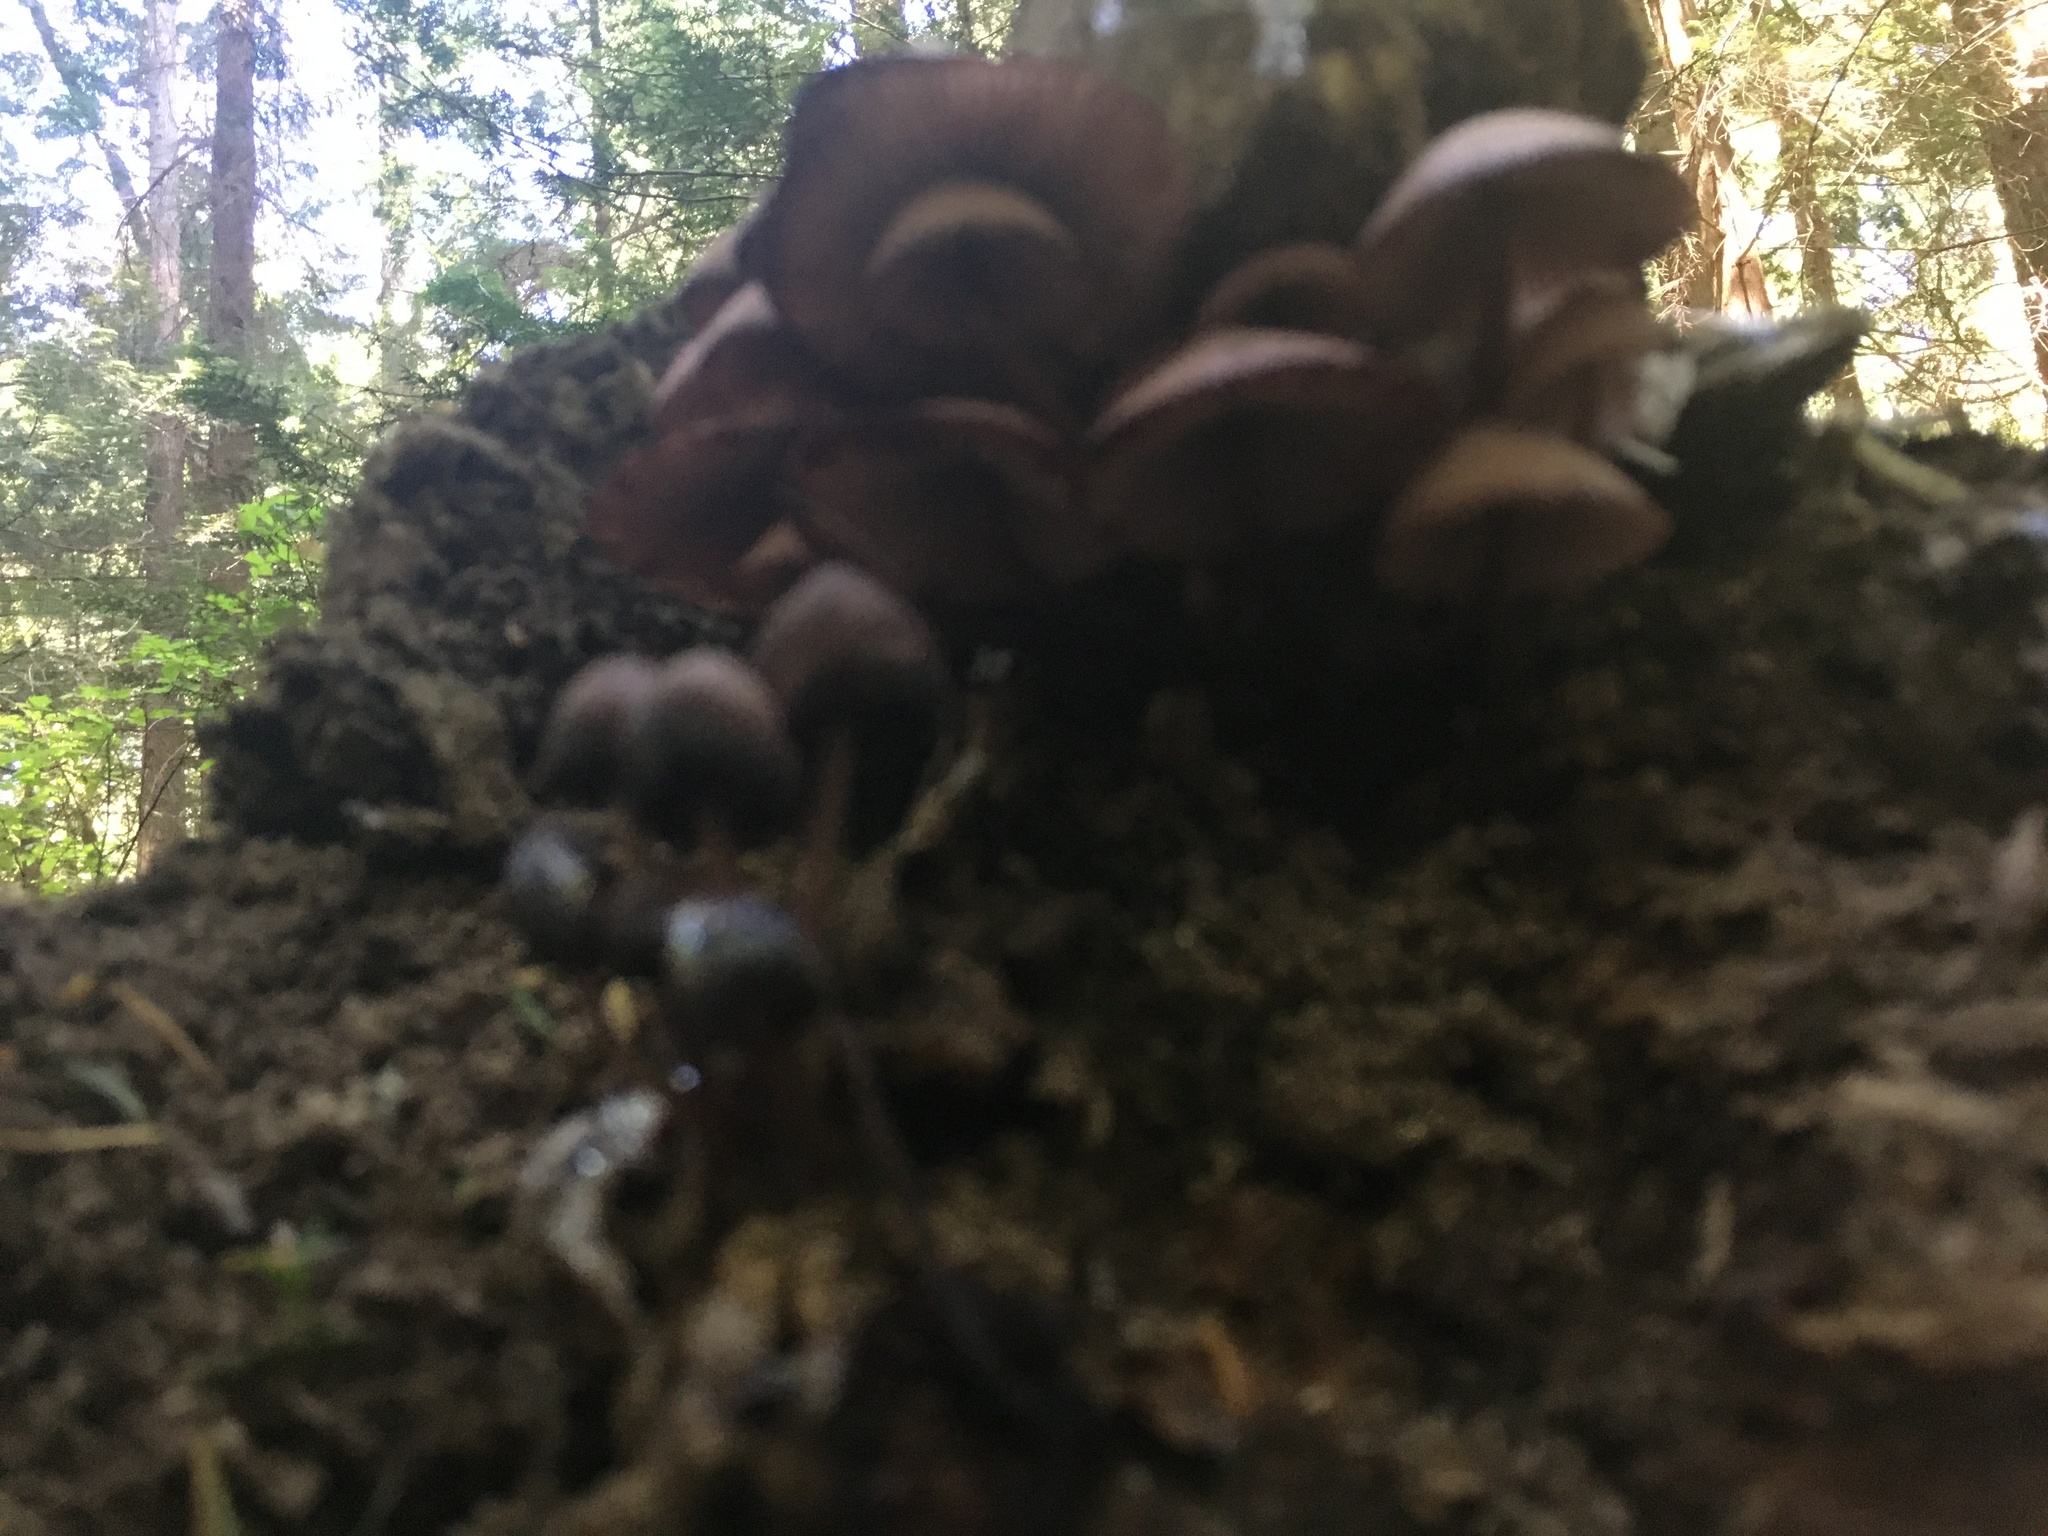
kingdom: Fungi
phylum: Basidiomycota
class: Agaricomycetes
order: Agaricales
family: Mycenaceae
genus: Mycena
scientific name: Mycena haematopus
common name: Burgundydrop bonnet
